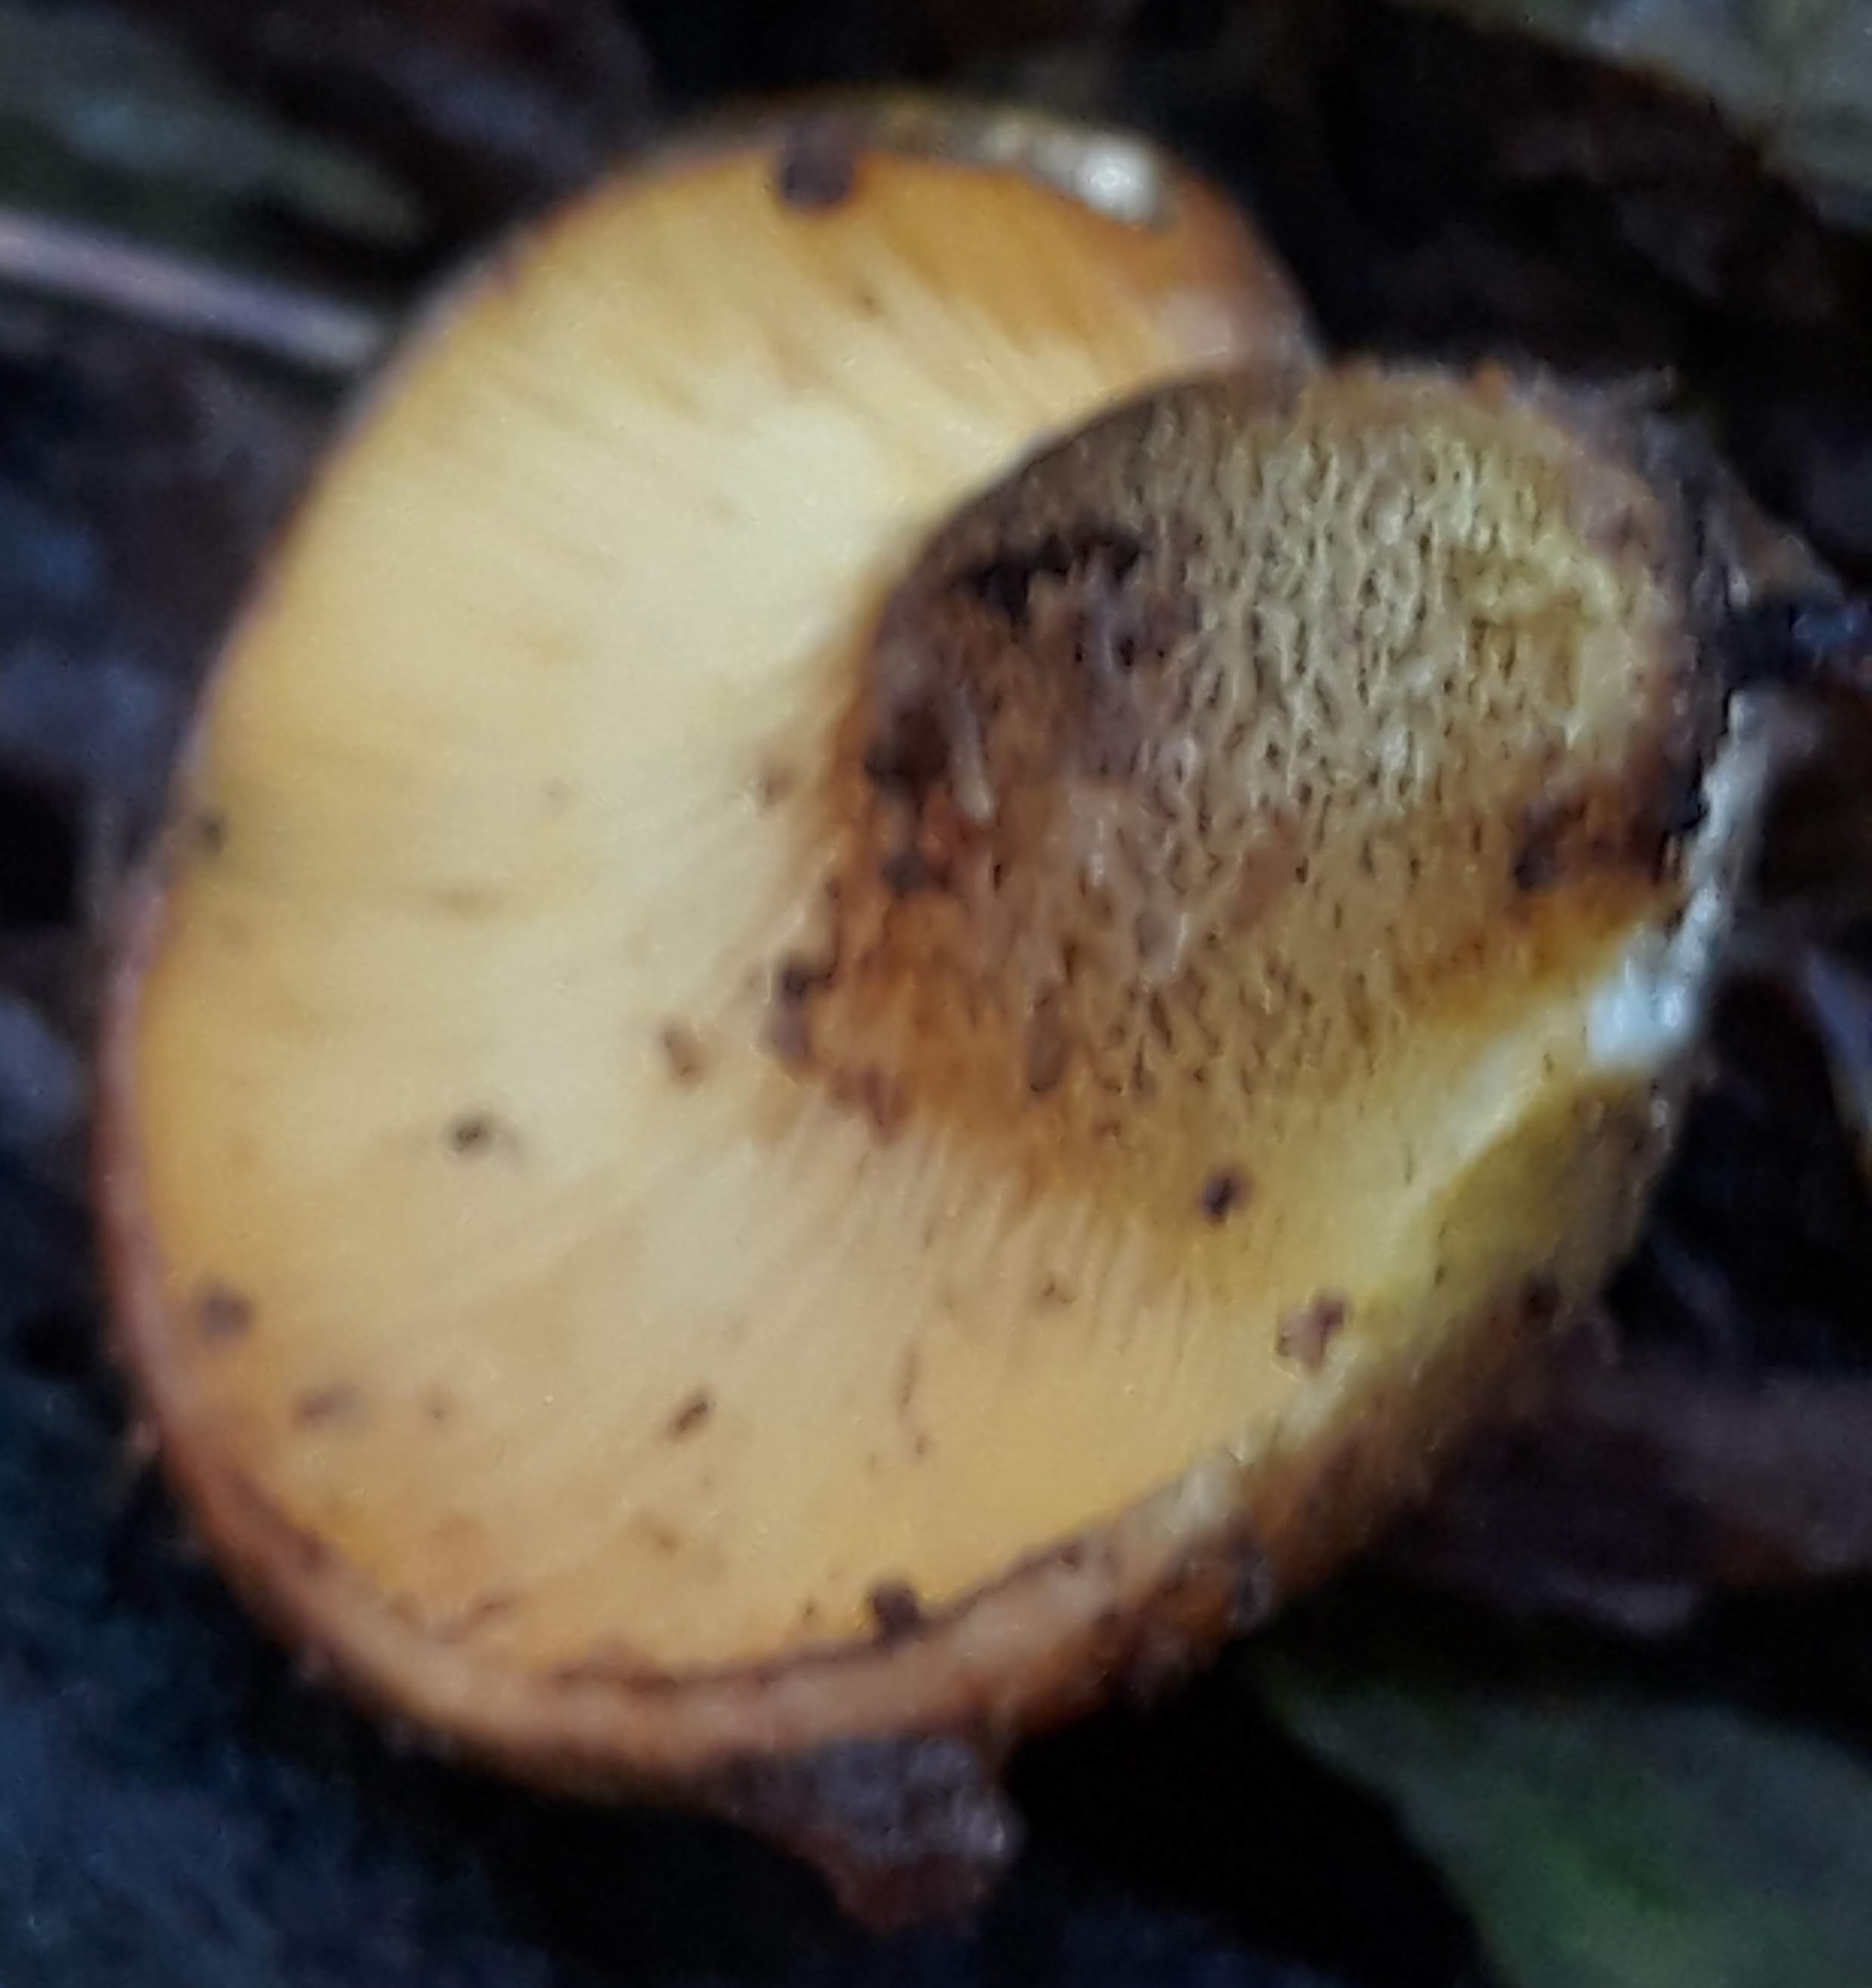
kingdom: Fungi
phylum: Basidiomycota
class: Agaricomycetes
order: Agaricales
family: Sarcomyxaceae
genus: Sarcomyxa
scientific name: Sarcomyxa serotina
